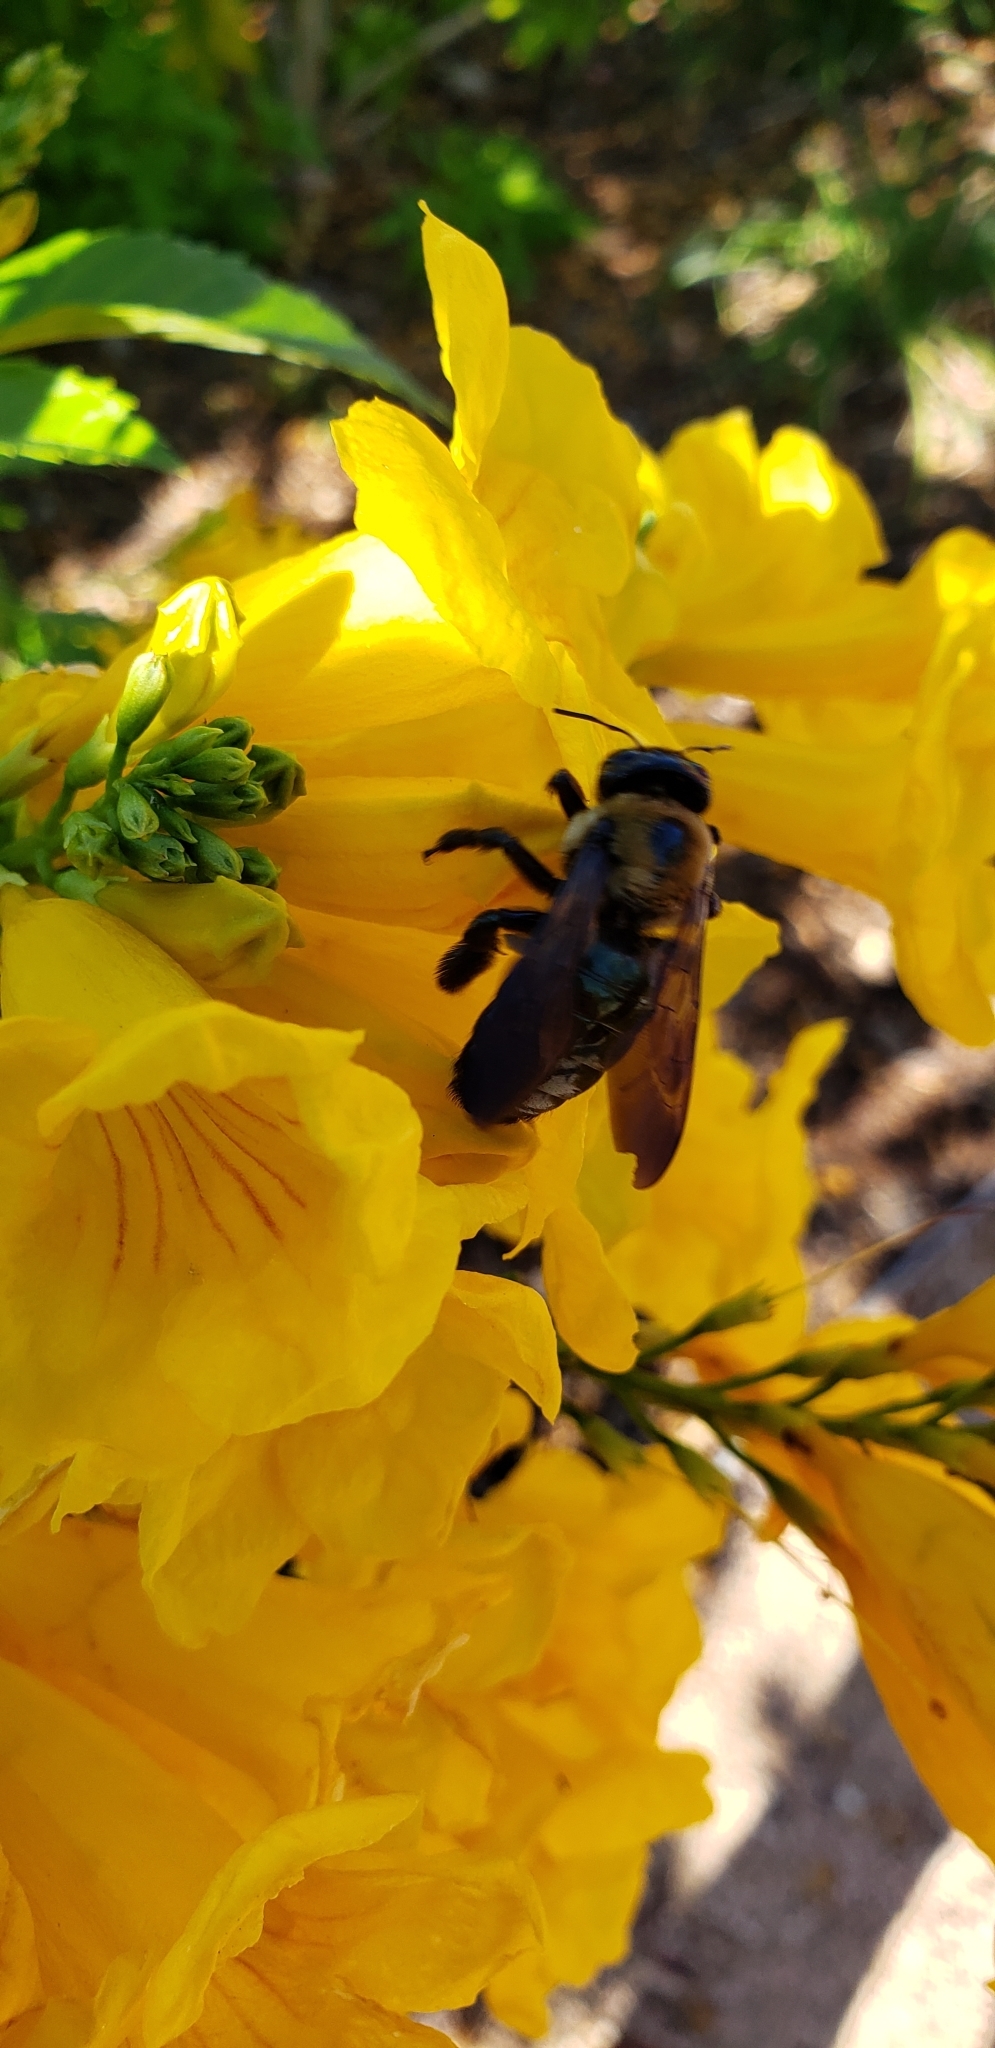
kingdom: Animalia
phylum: Arthropoda
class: Insecta
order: Hymenoptera
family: Apidae
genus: Xylocopa
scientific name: Xylocopa virginica
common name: Carpenter bee
